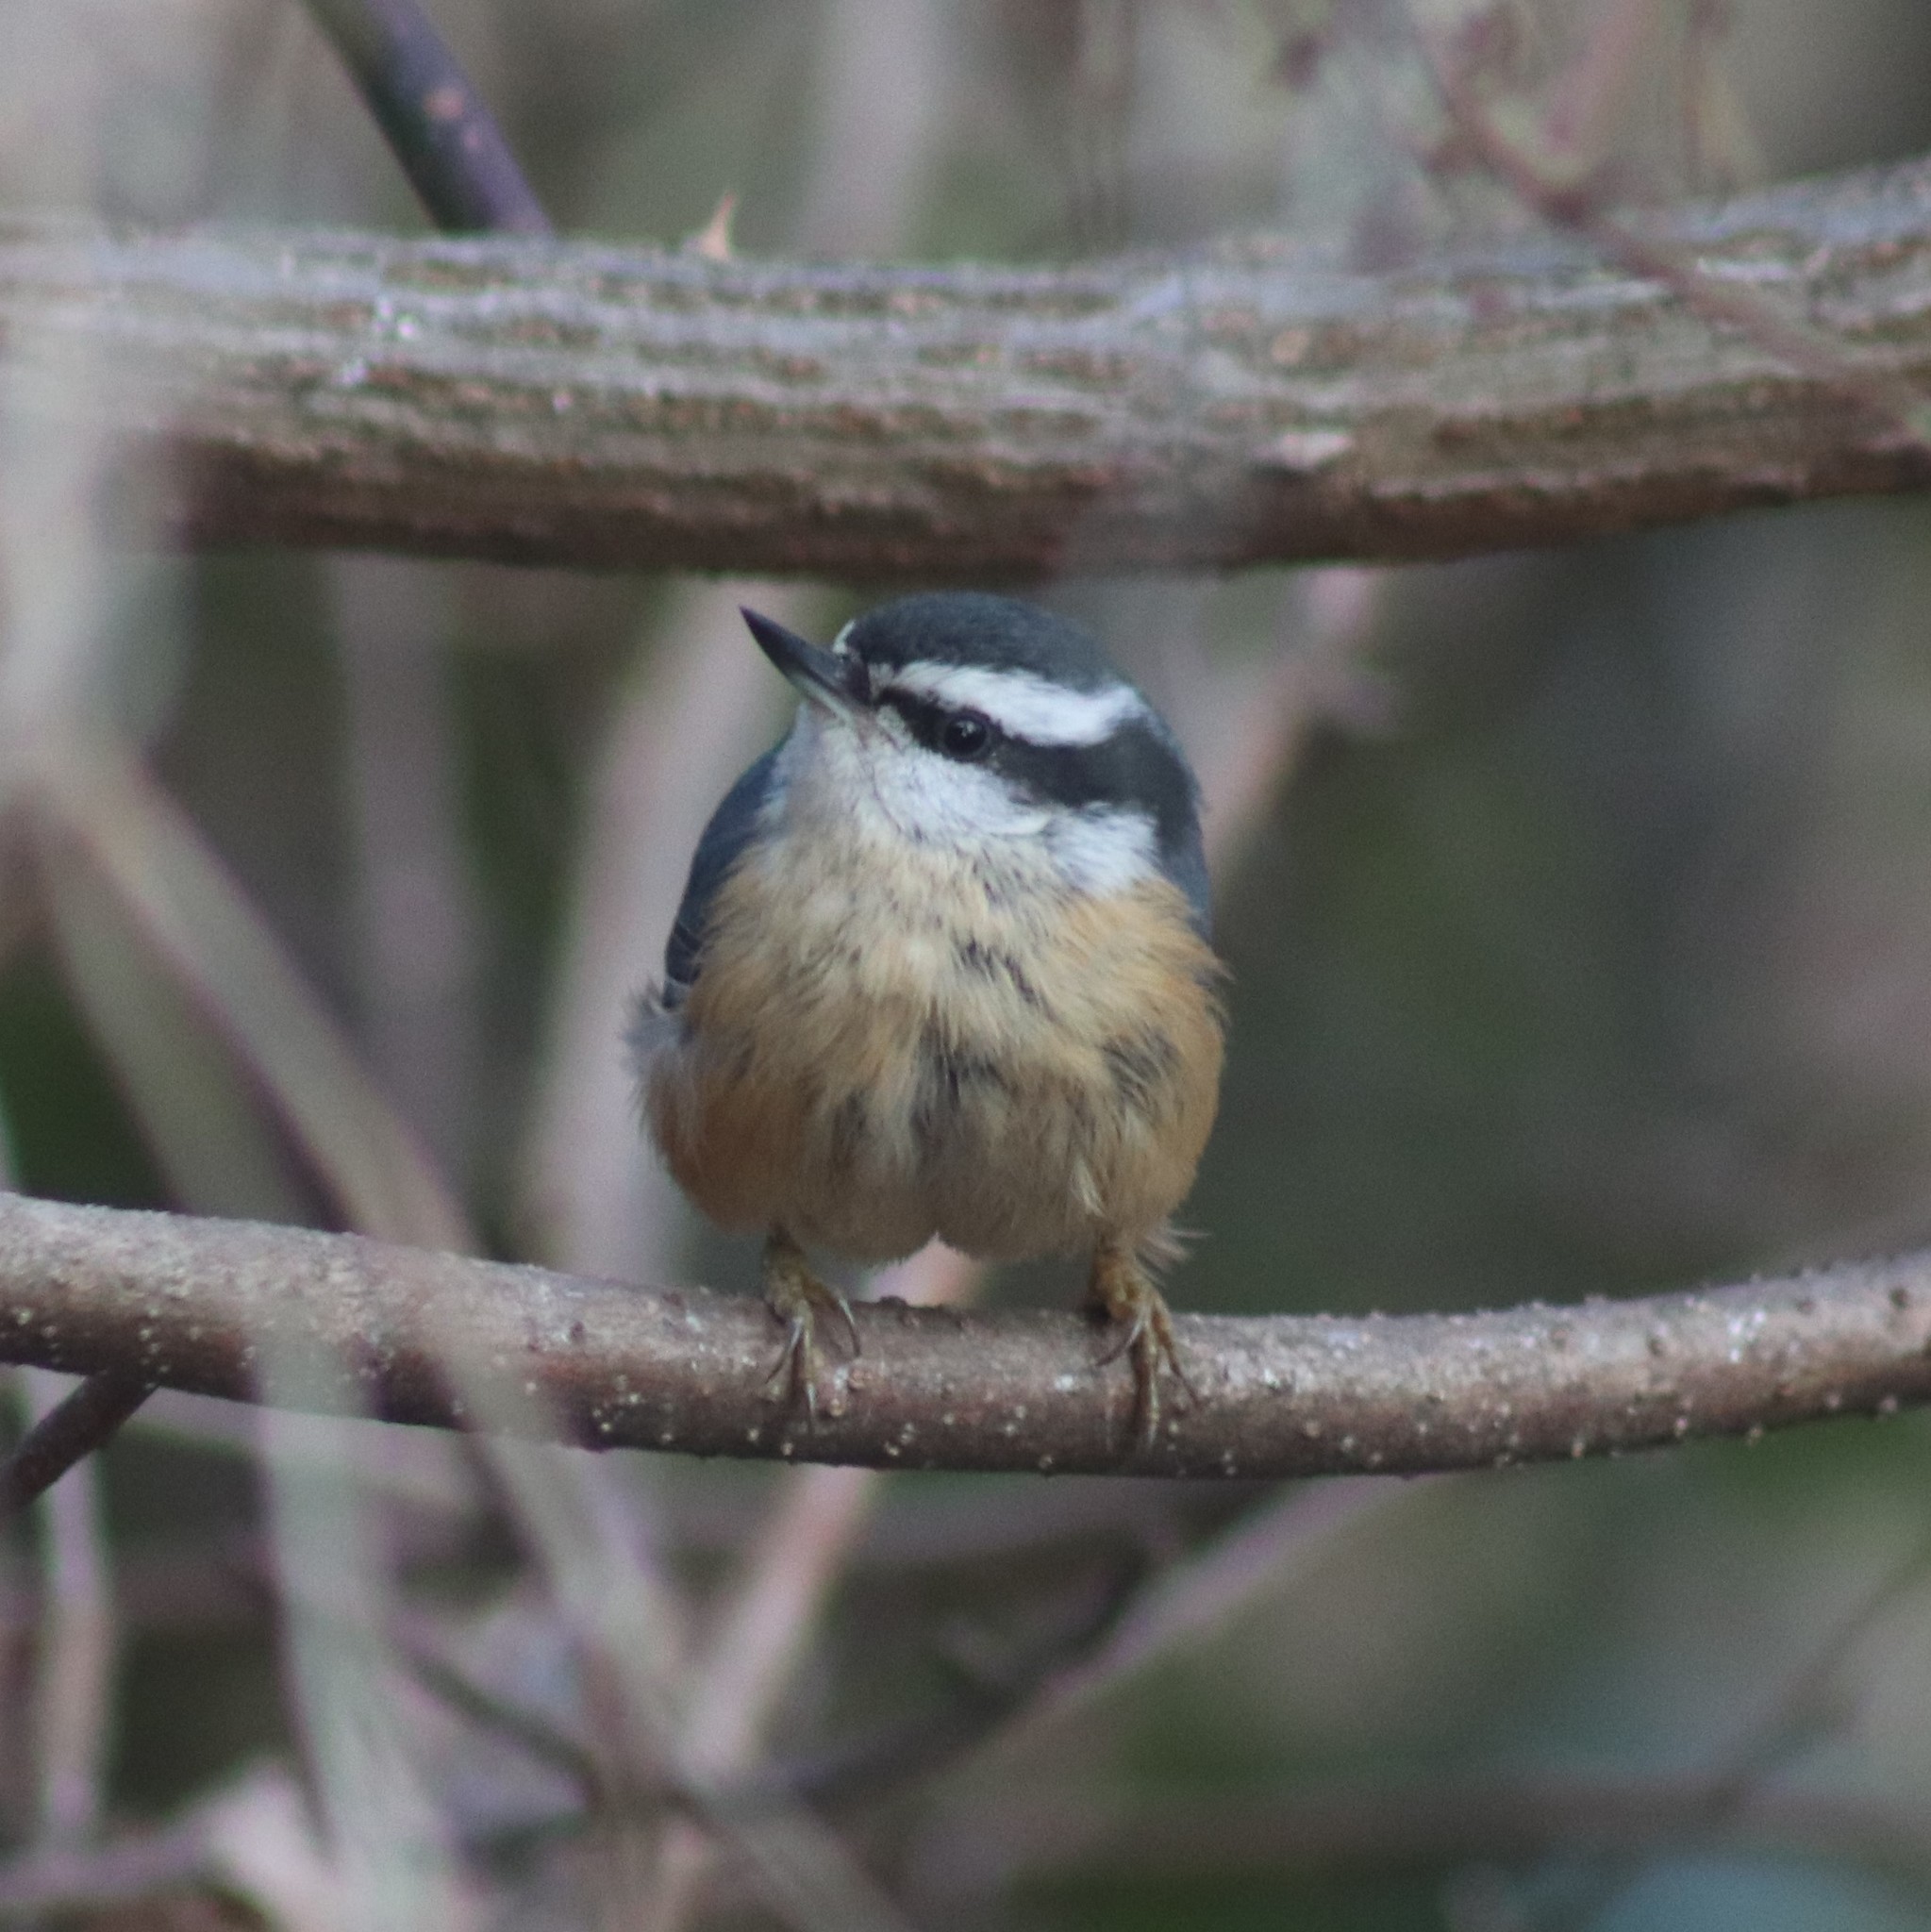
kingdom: Animalia
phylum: Chordata
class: Aves
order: Passeriformes
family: Sittidae
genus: Sitta
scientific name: Sitta canadensis
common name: Red-breasted nuthatch
